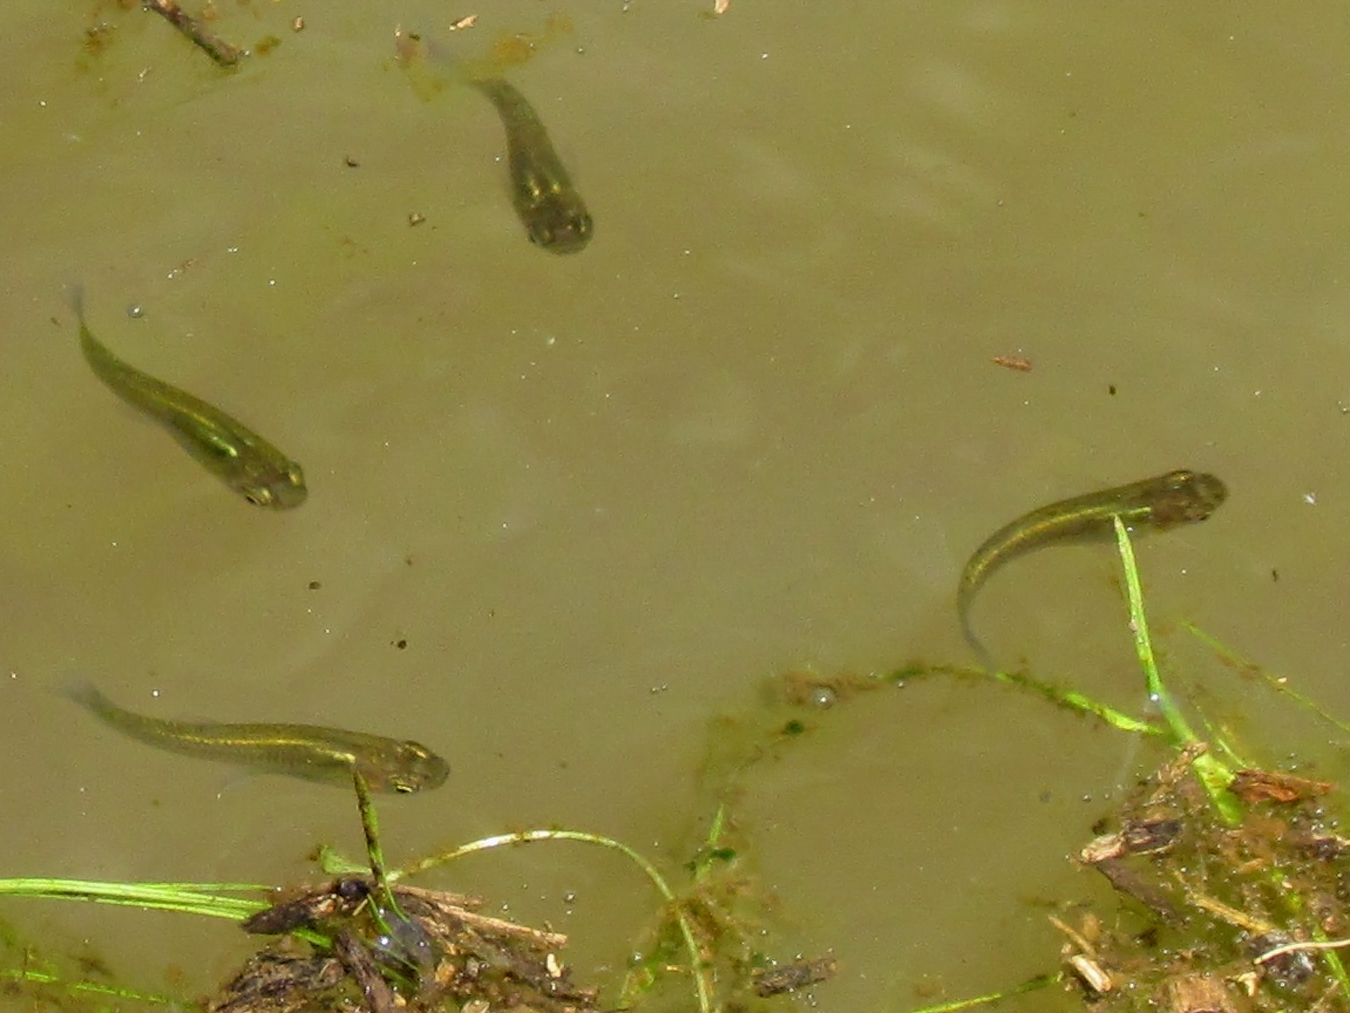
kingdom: Animalia
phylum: Chordata
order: Cyprinodontiformes
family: Poeciliidae
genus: Gambusia
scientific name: Gambusia holbrooki
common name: Eastern mosquitofish
